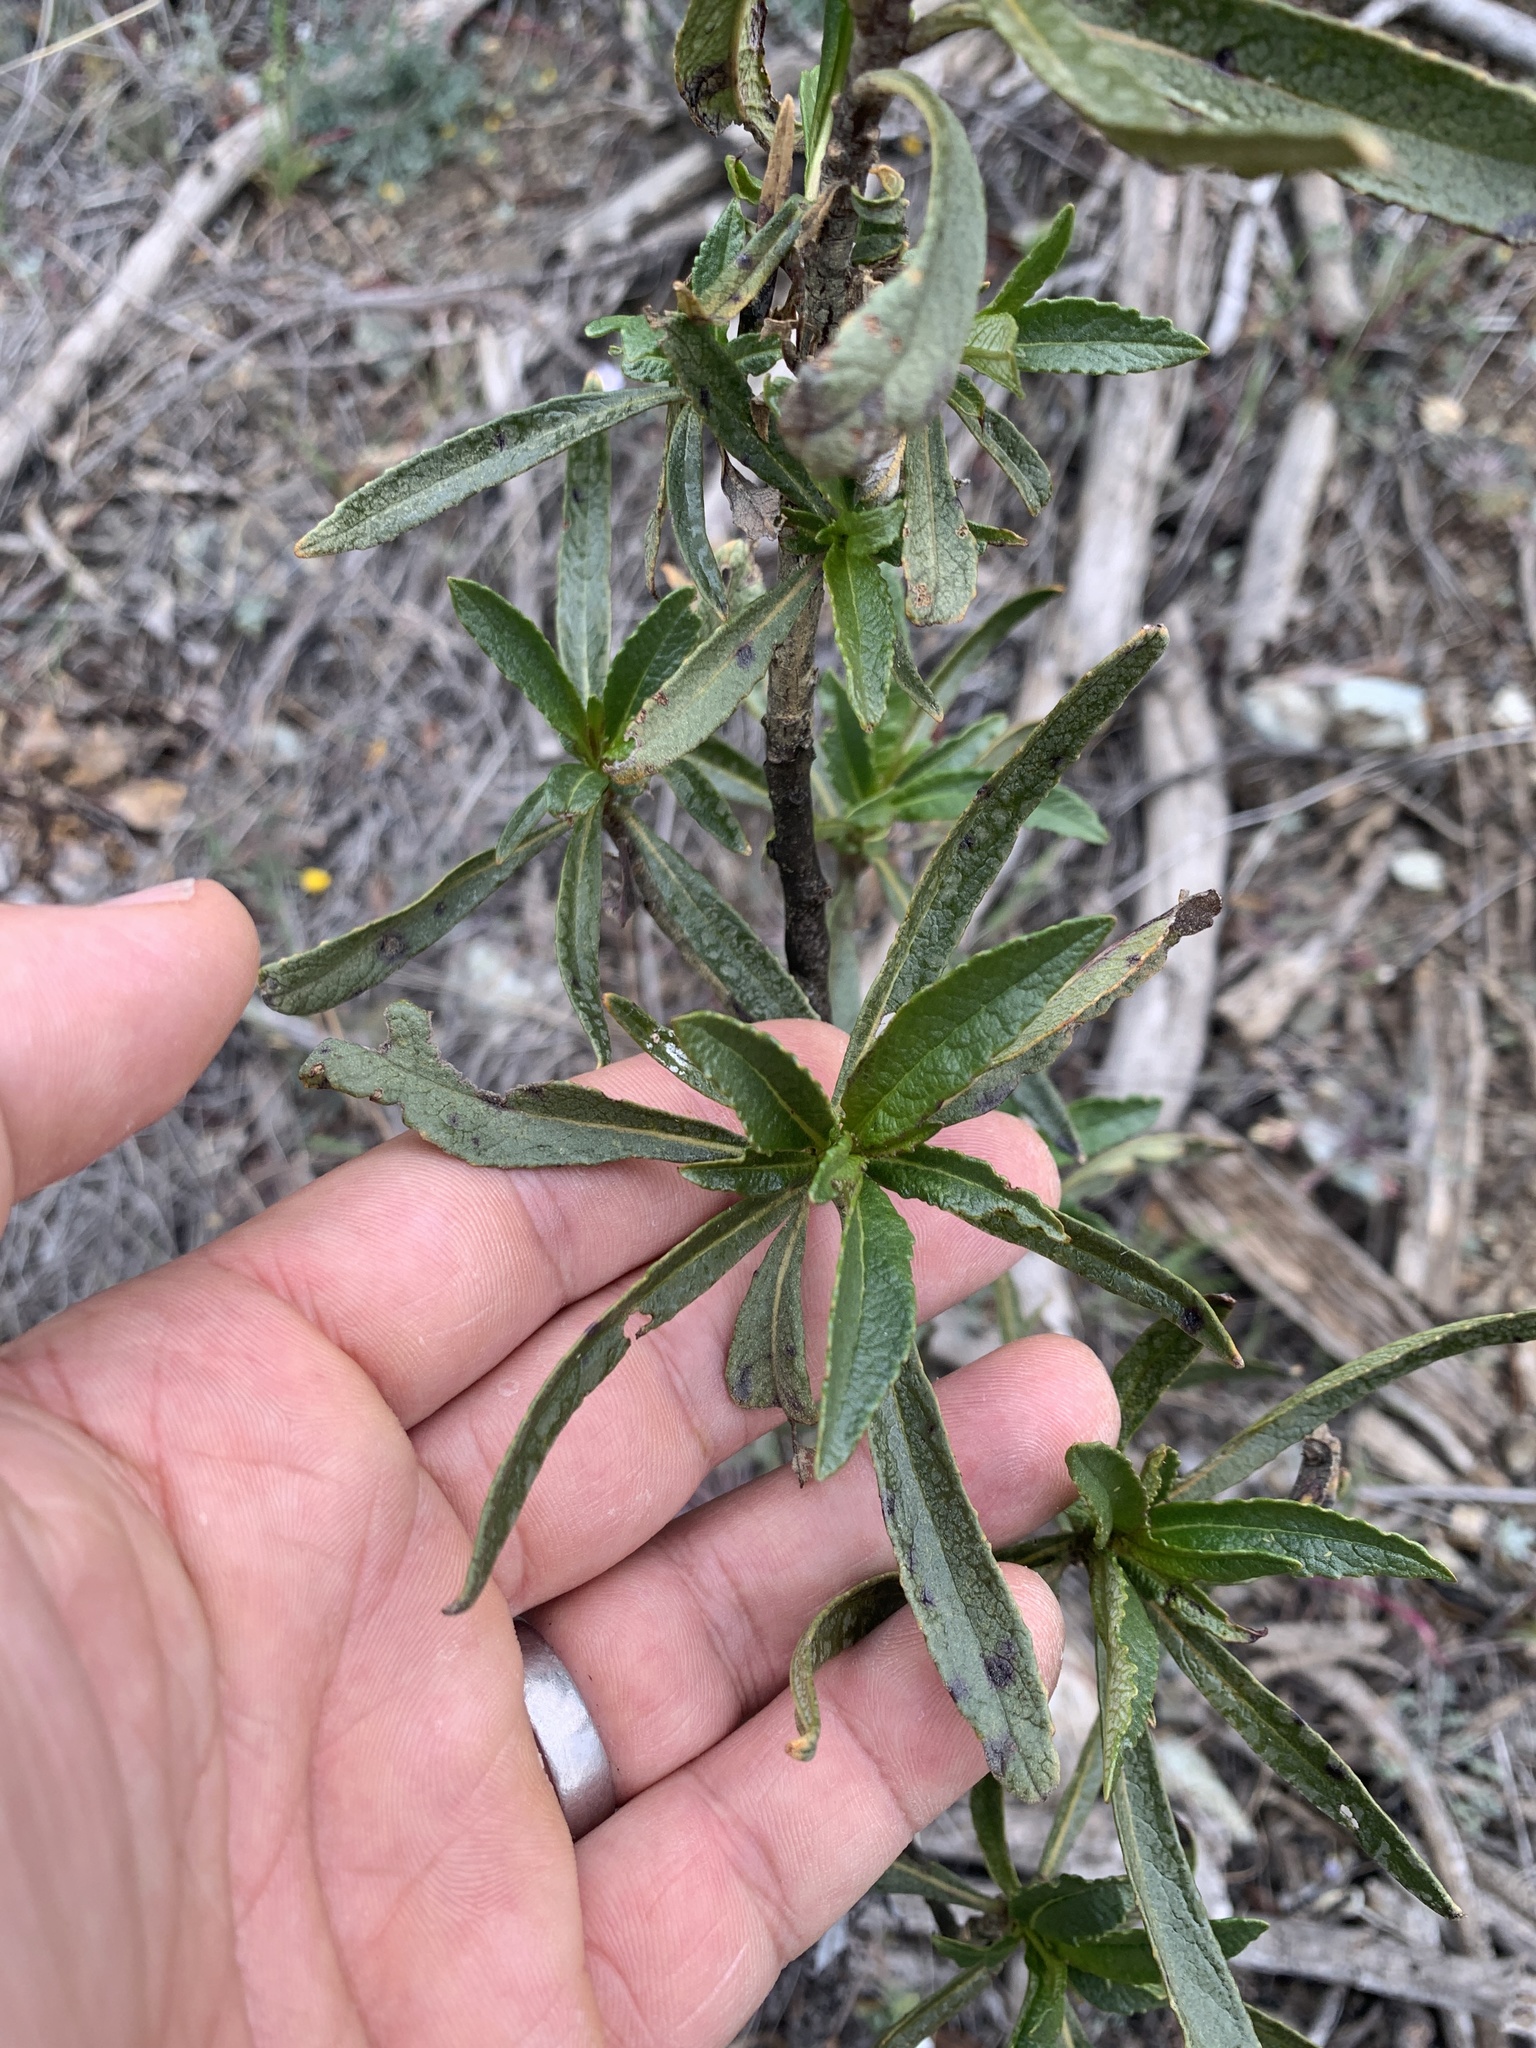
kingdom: Plantae
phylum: Tracheophyta
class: Magnoliopsida
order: Boraginales
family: Namaceae
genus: Eriodictyon
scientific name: Eriodictyon californicum
